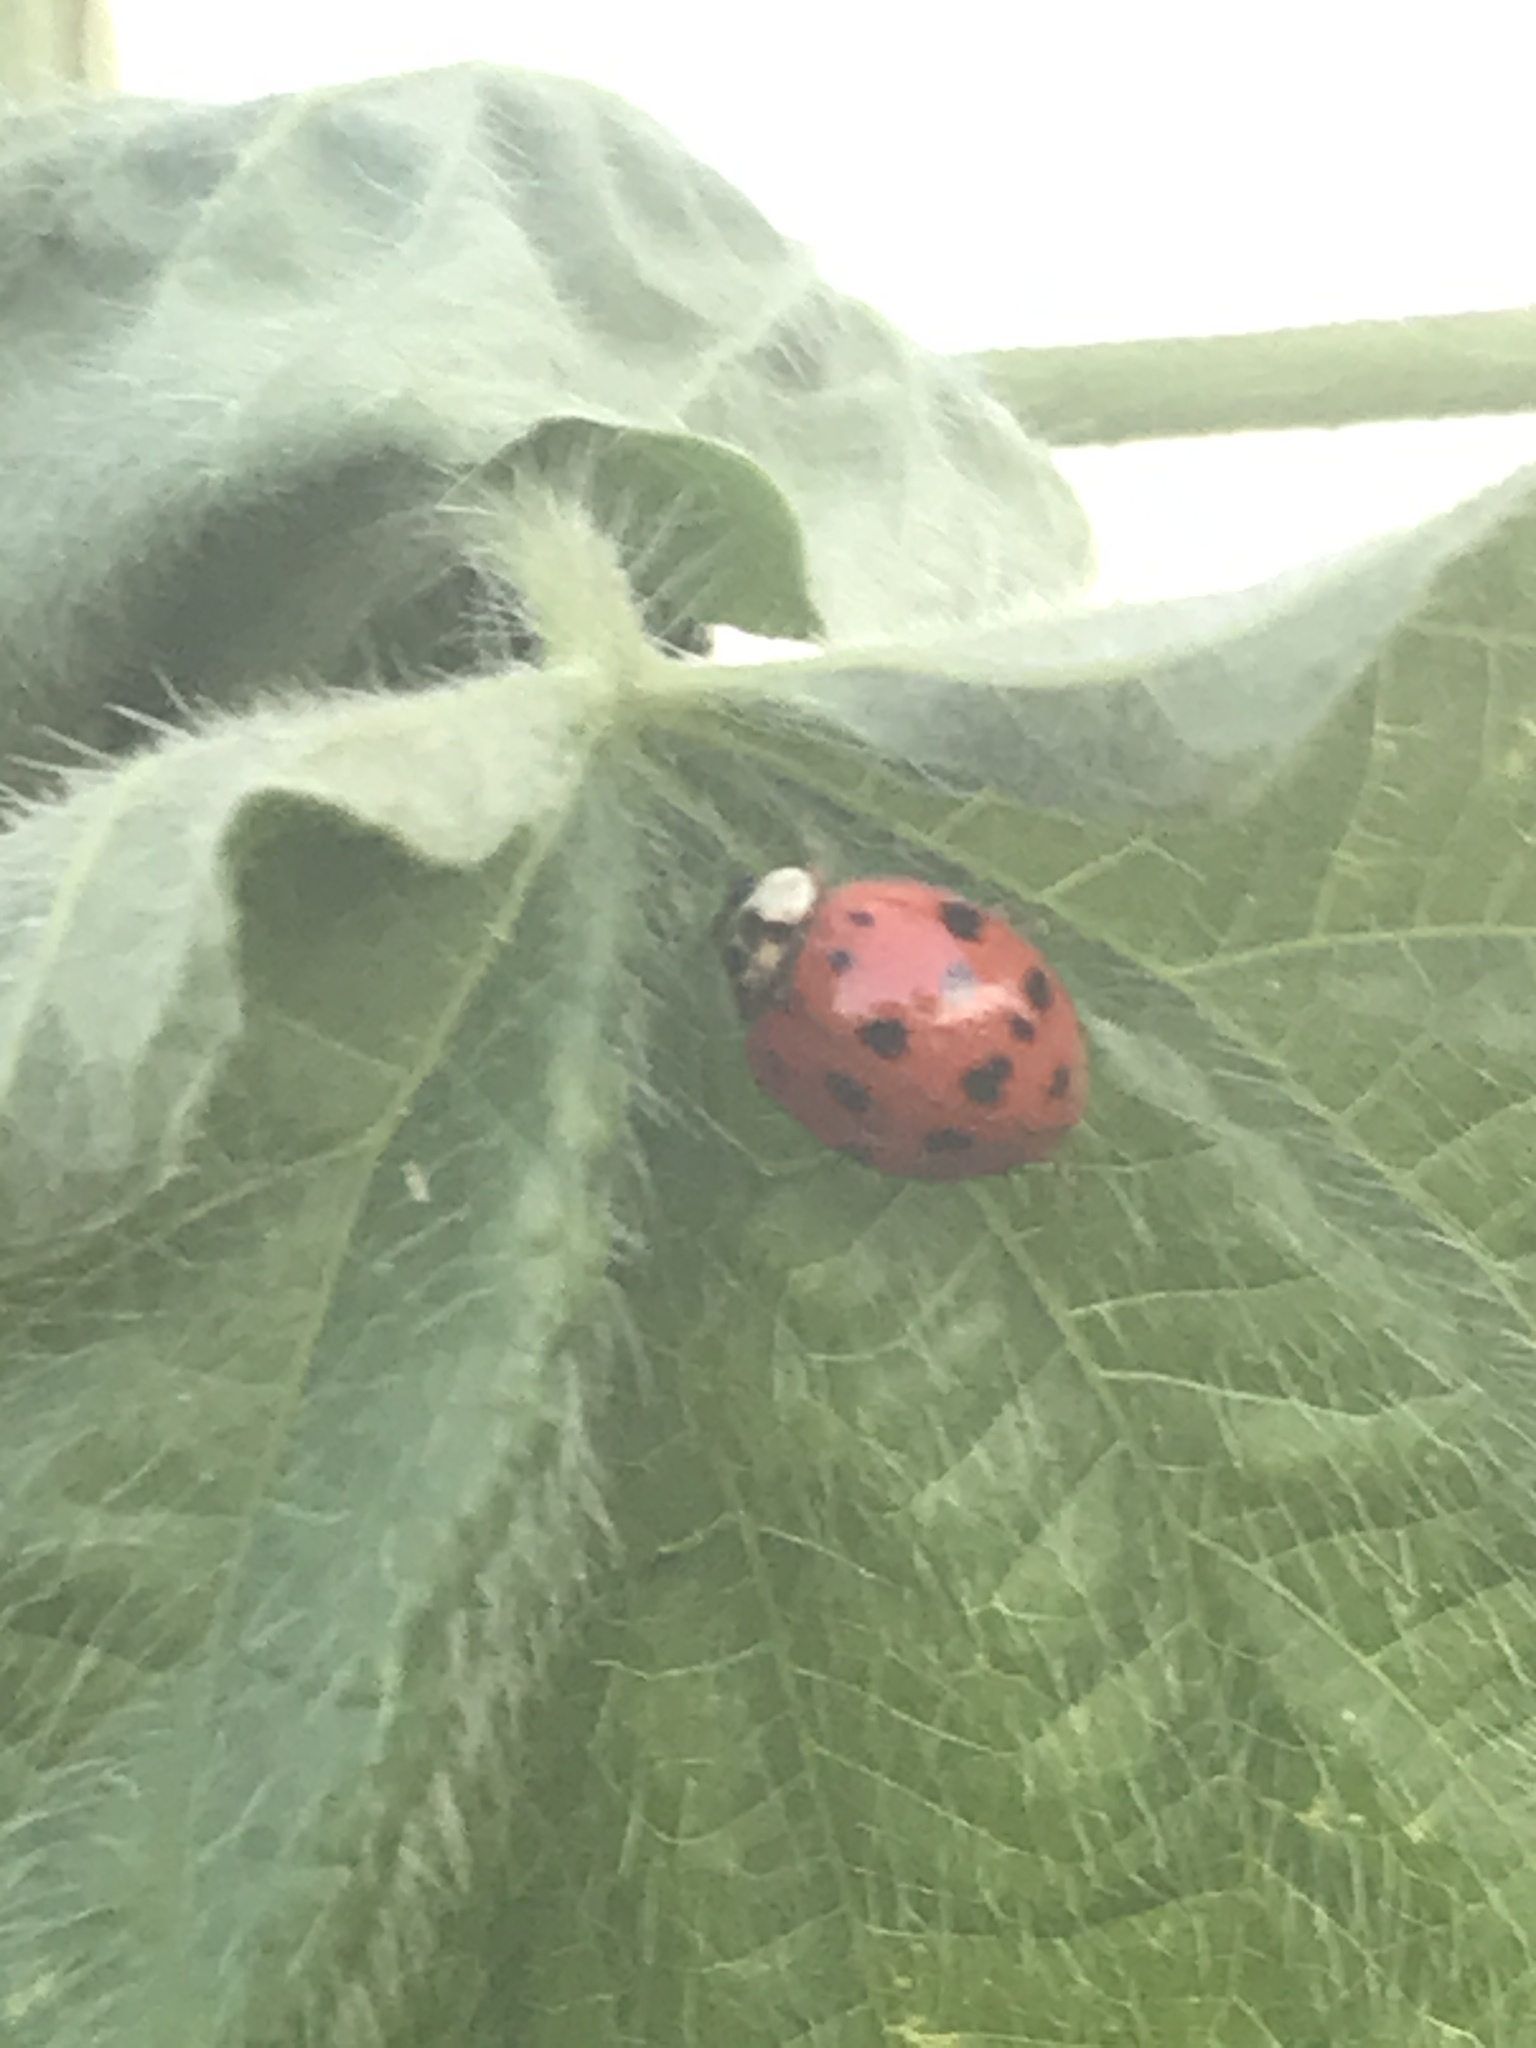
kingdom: Animalia
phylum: Arthropoda
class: Insecta
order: Coleoptera
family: Coccinellidae
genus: Harmonia
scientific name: Harmonia axyridis
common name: Harlequin ladybird
